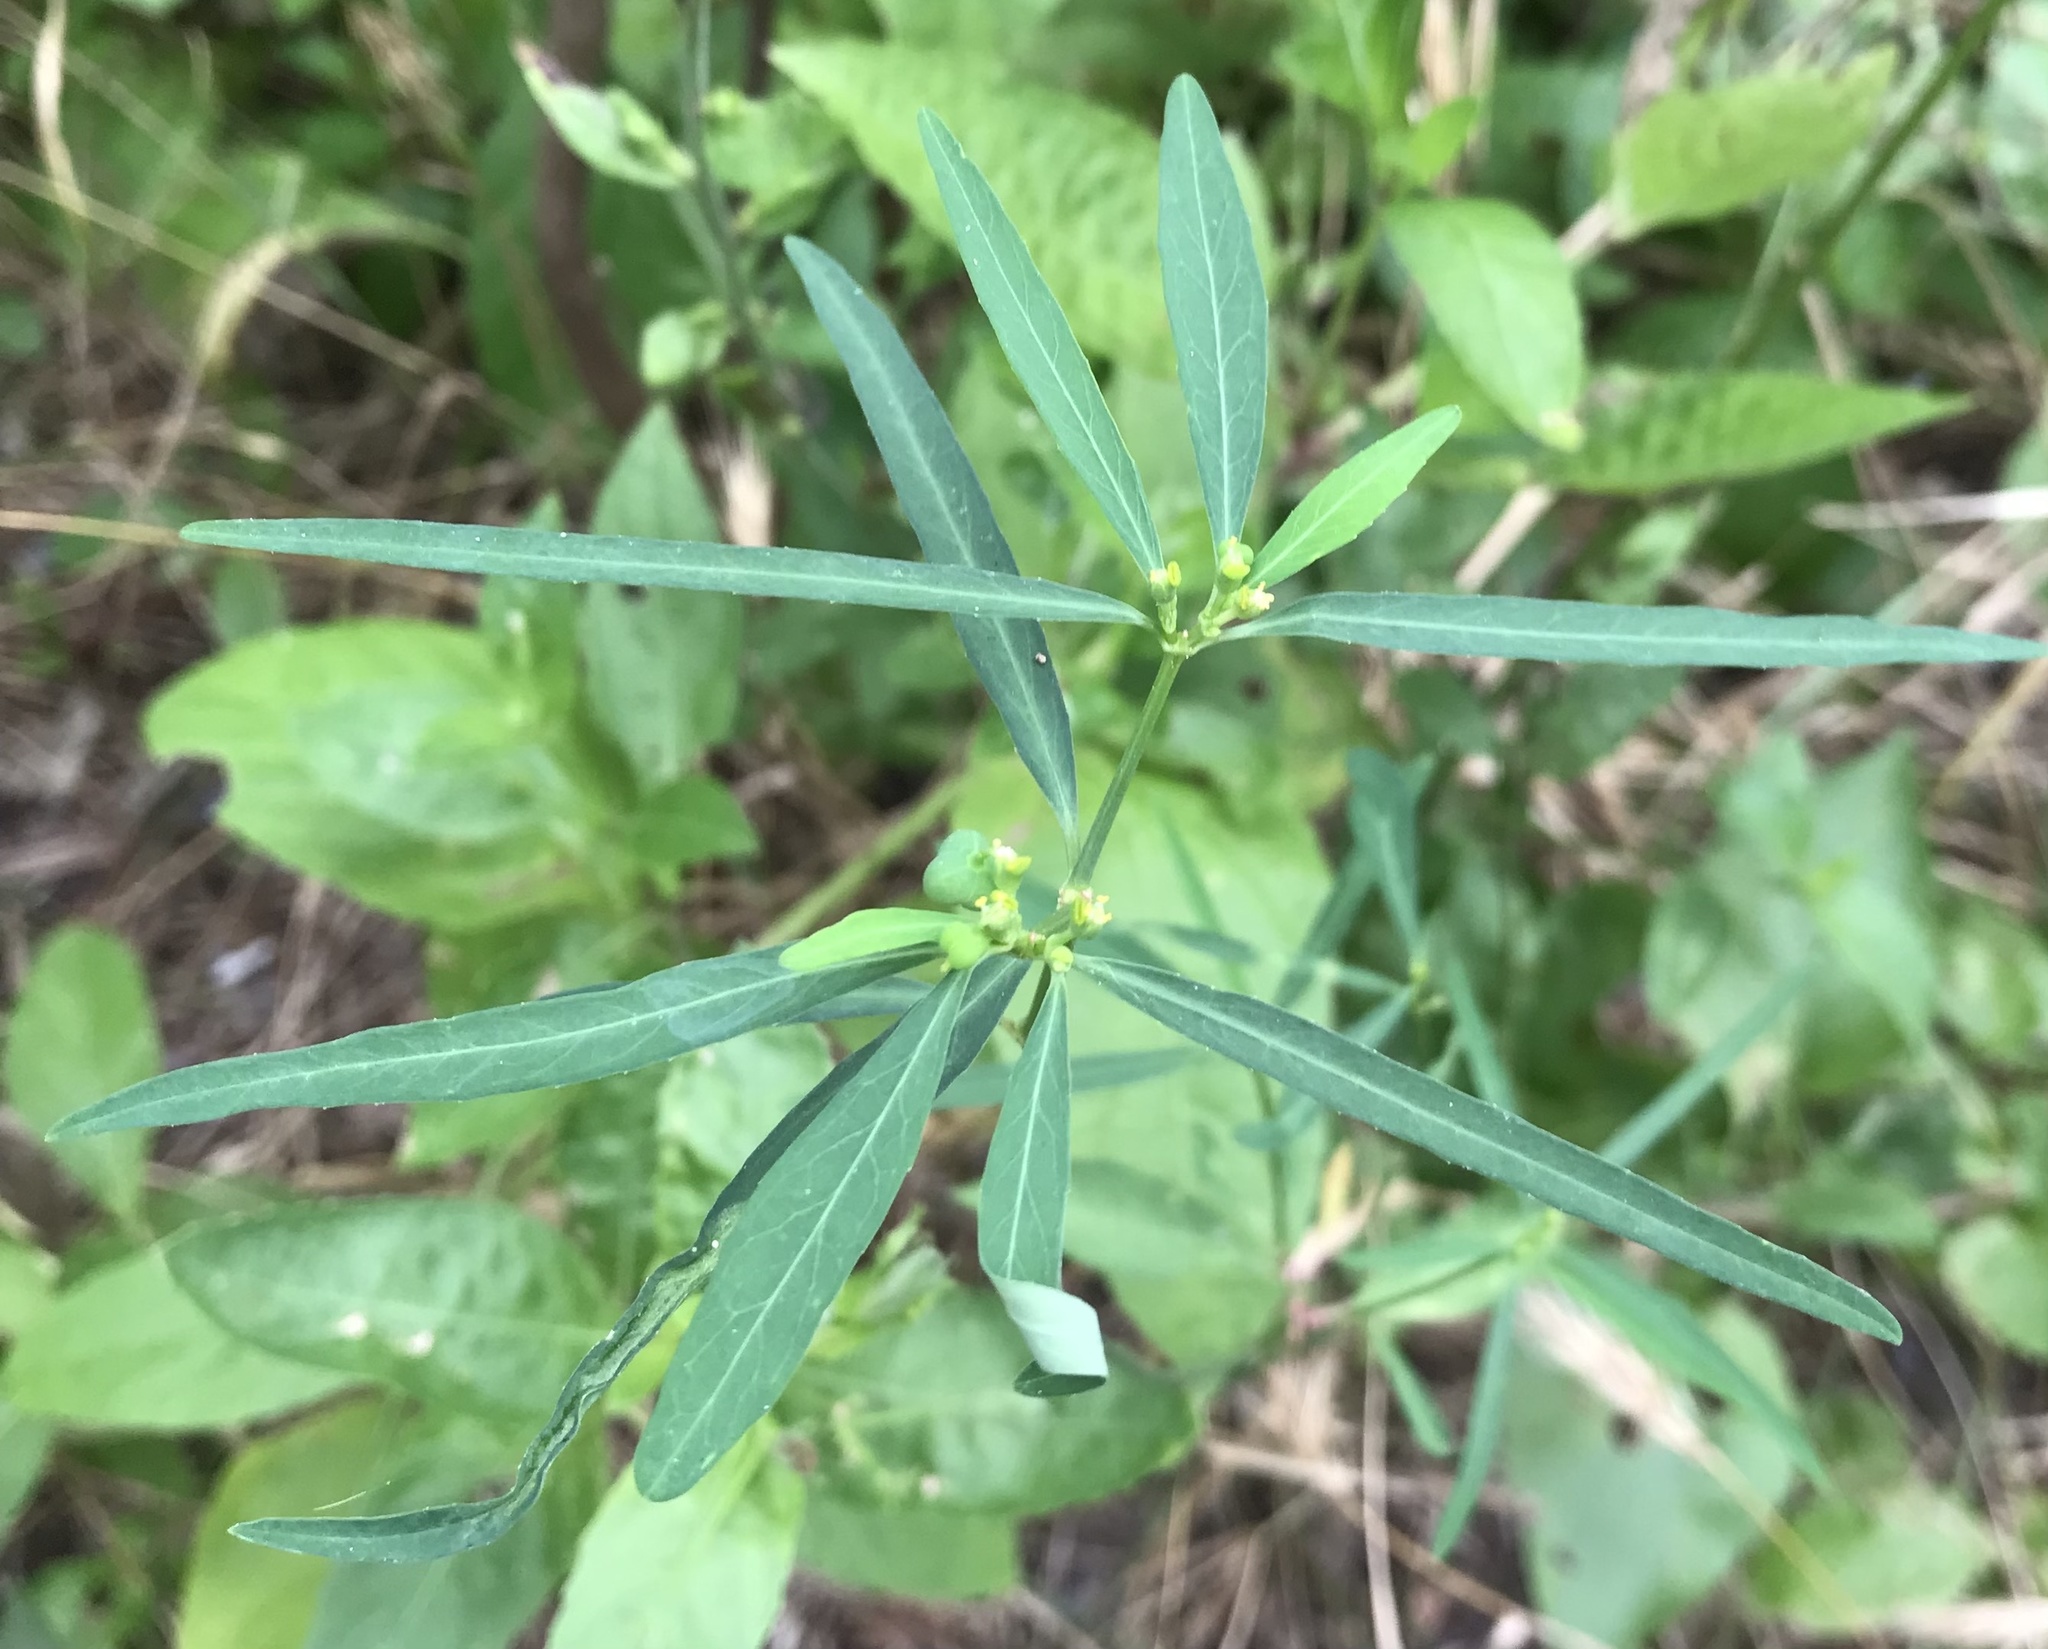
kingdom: Plantae
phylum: Tracheophyta
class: Magnoliopsida
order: Malpighiales
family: Euphorbiaceae
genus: Euphorbia
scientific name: Euphorbia heterophylla
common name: Mexican fireplant
